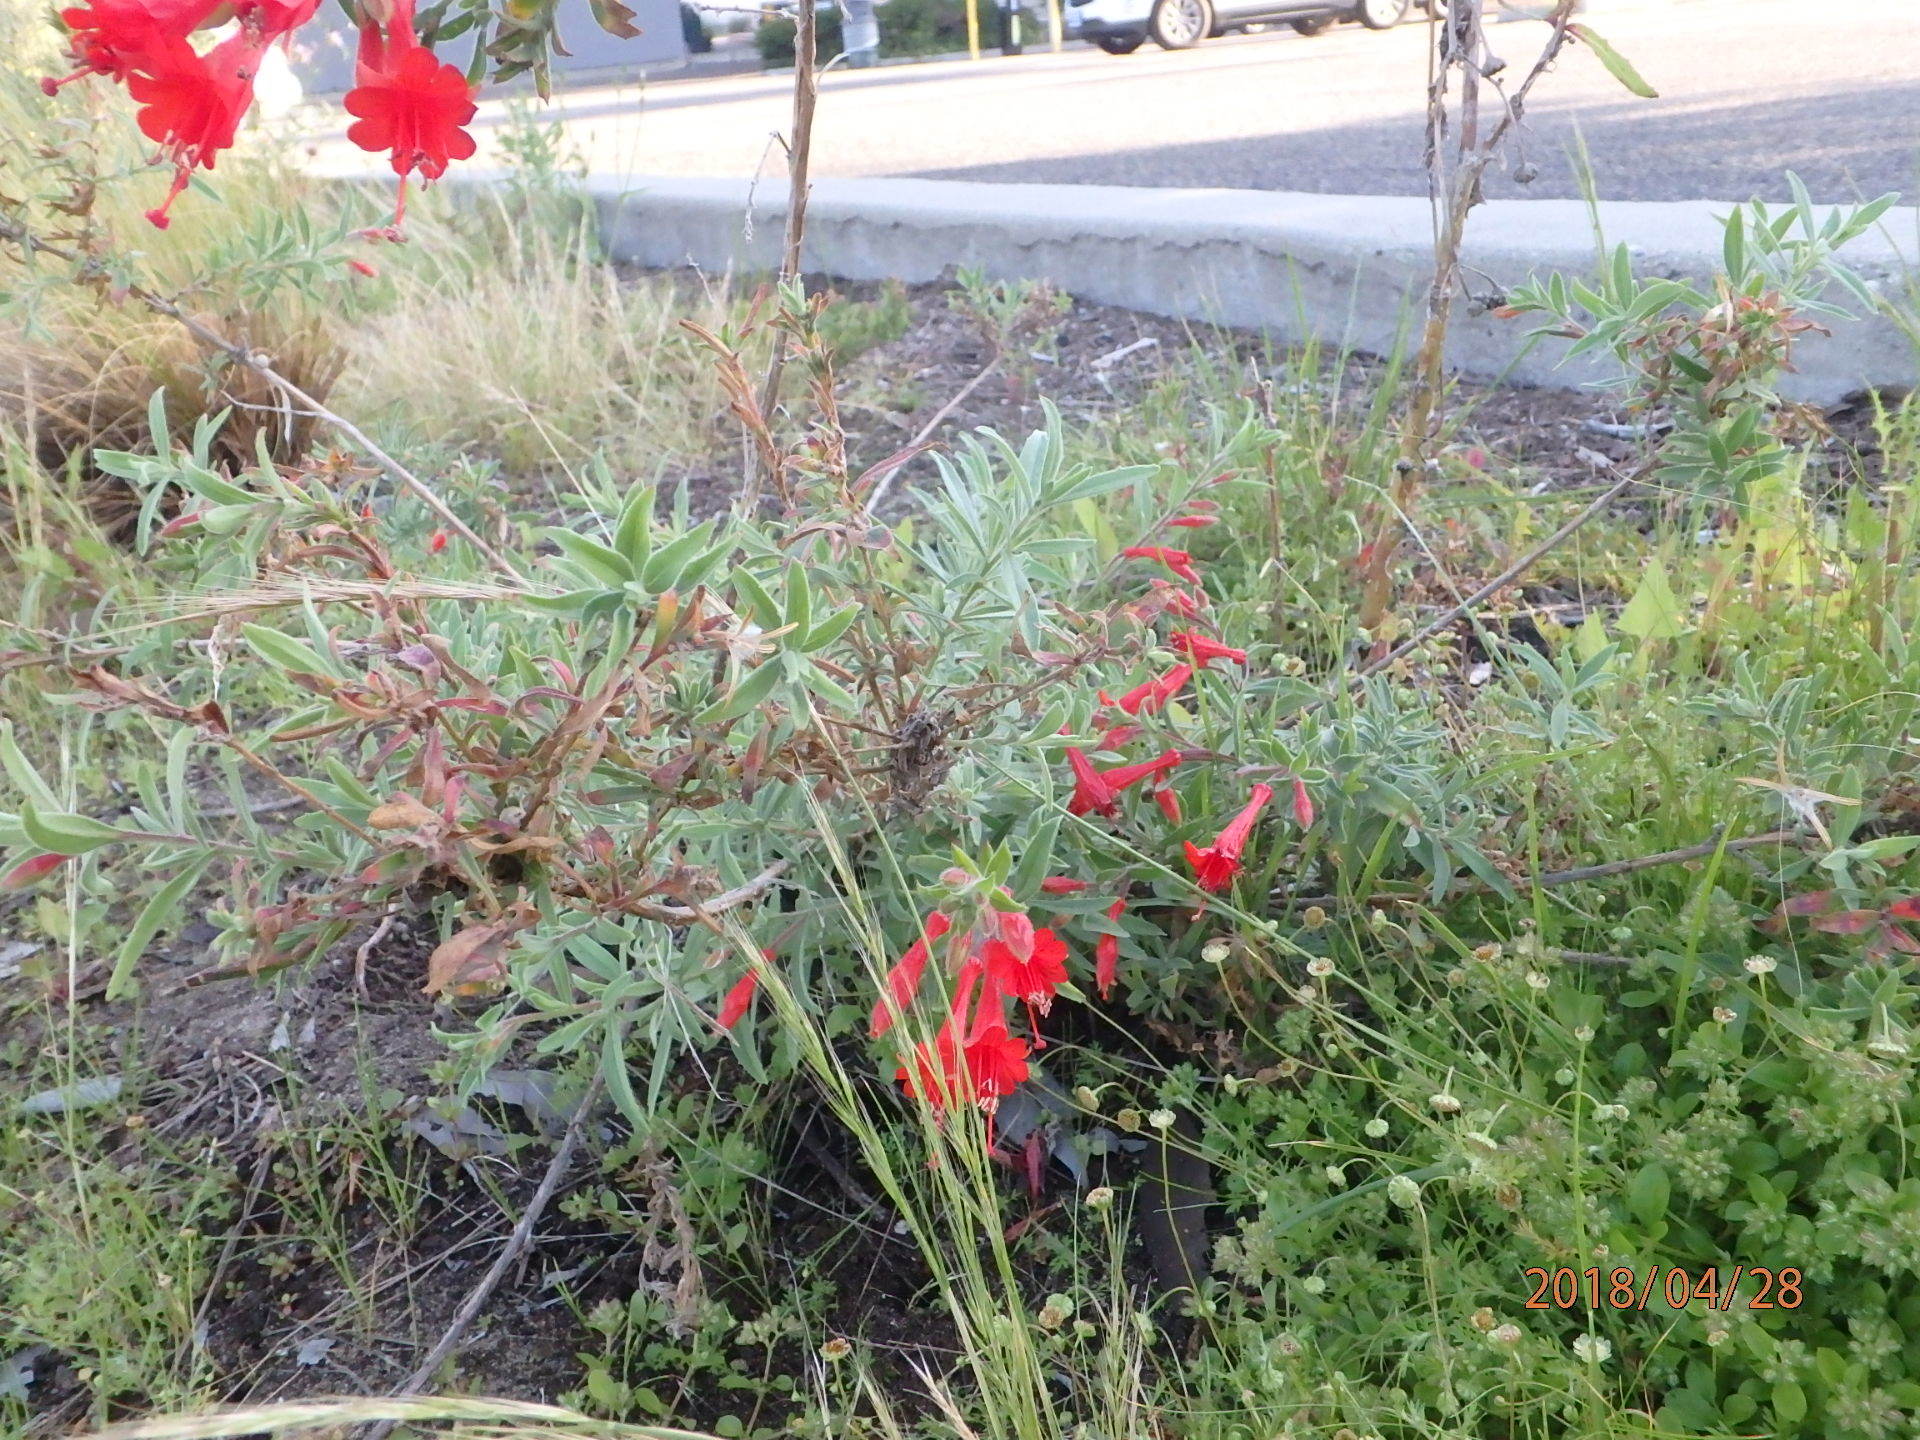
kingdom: Plantae
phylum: Tracheophyta
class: Magnoliopsida
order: Myrtales
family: Onagraceae
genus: Epilobium
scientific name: Epilobium canum
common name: California-fuchsia
